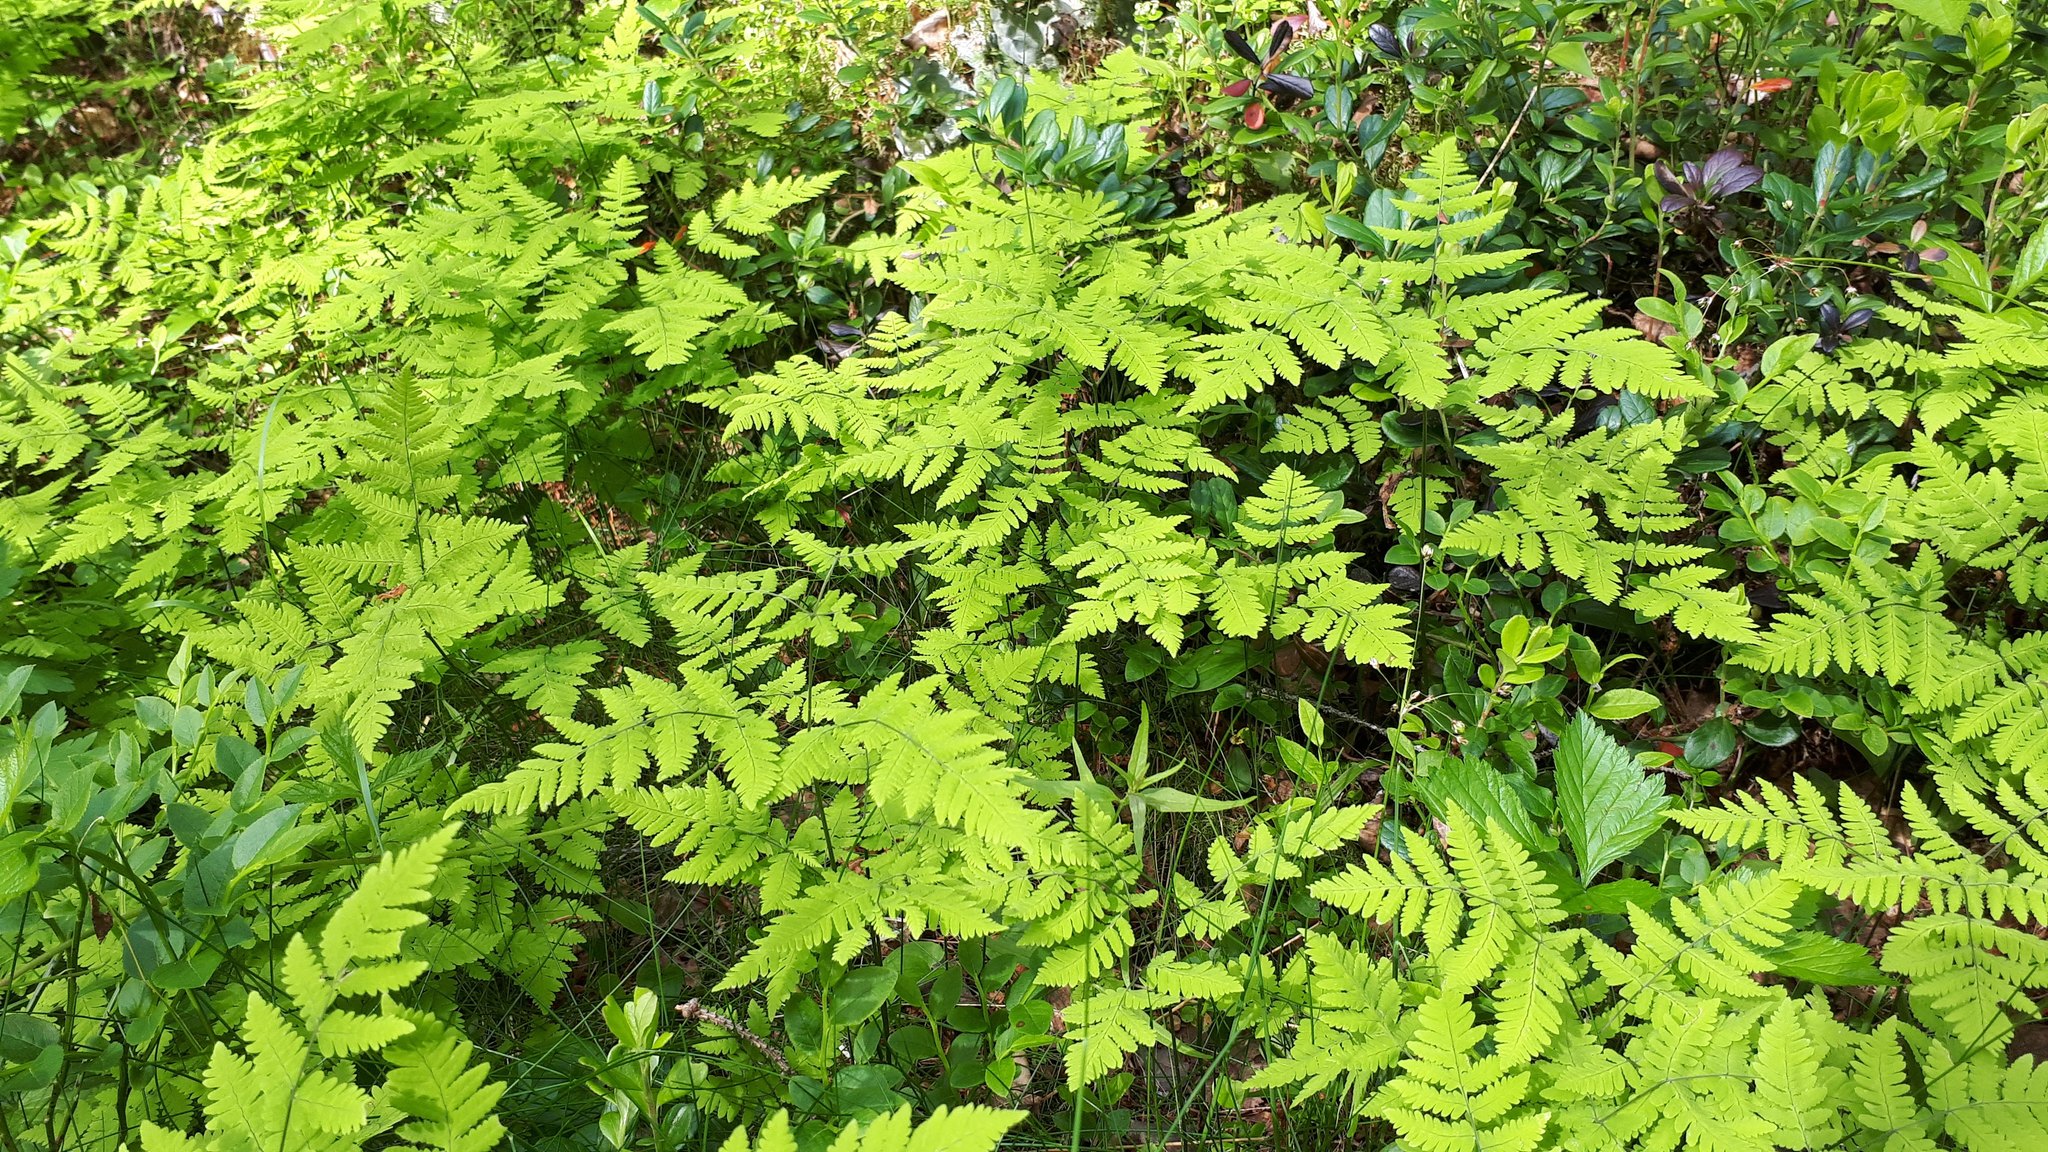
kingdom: Plantae
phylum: Tracheophyta
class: Polypodiopsida
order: Polypodiales
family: Cystopteridaceae
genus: Gymnocarpium
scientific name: Gymnocarpium dryopteris
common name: Oak fern
